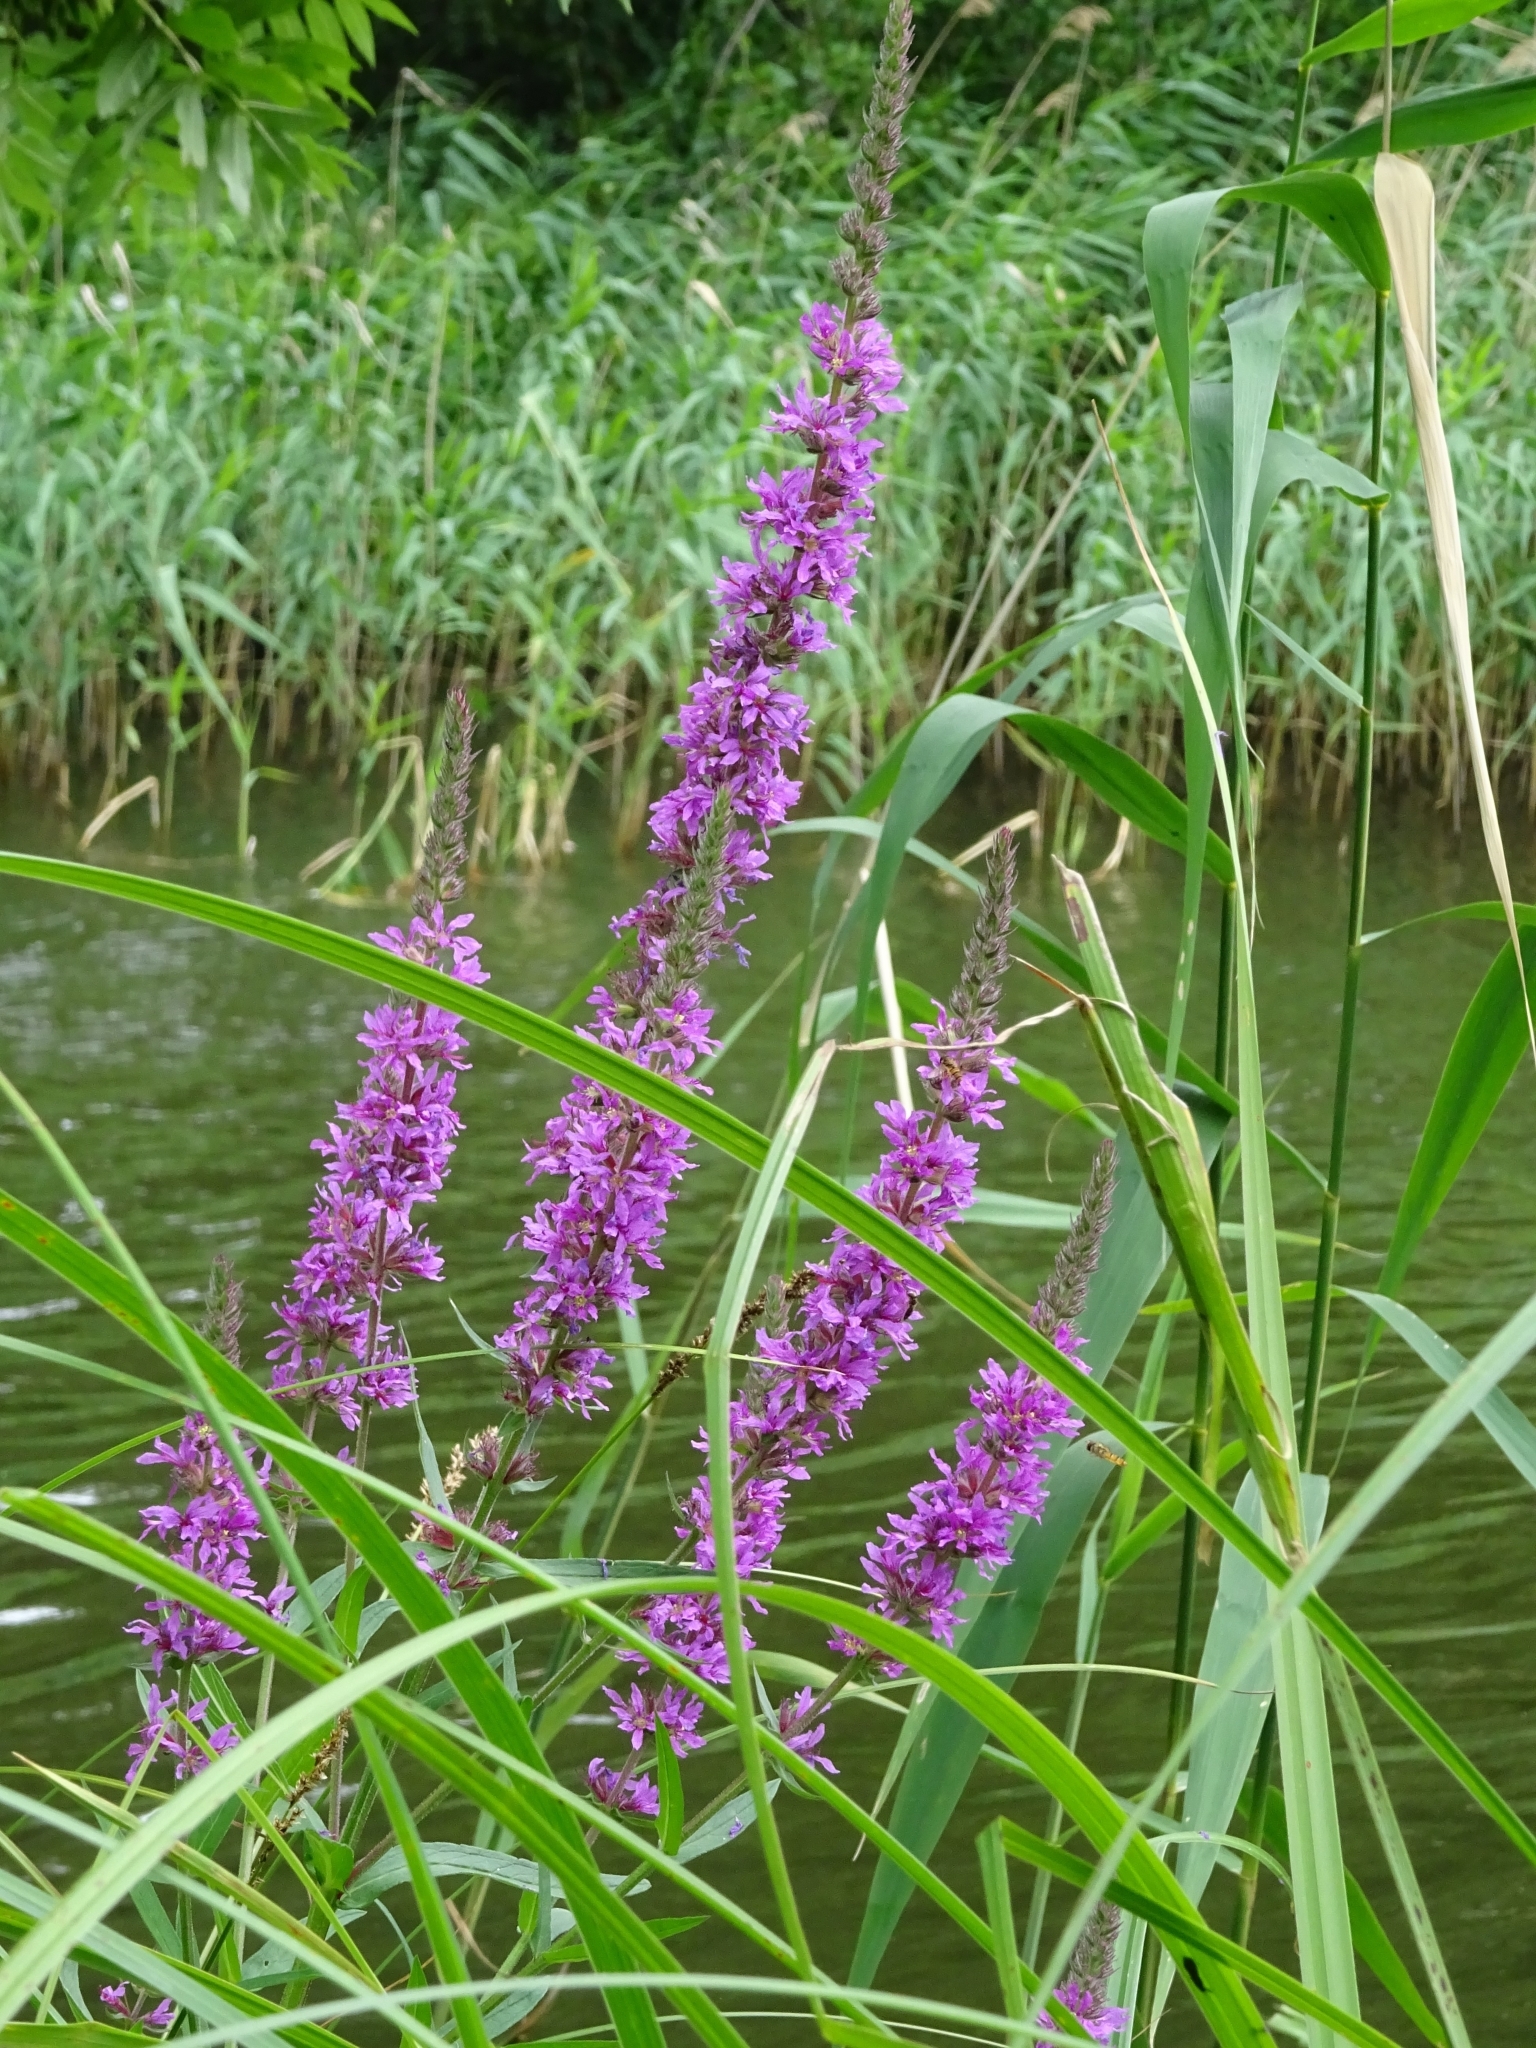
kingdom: Plantae
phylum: Tracheophyta
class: Magnoliopsida
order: Myrtales
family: Lythraceae
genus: Lythrum
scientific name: Lythrum salicaria
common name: Purple loosestrife
